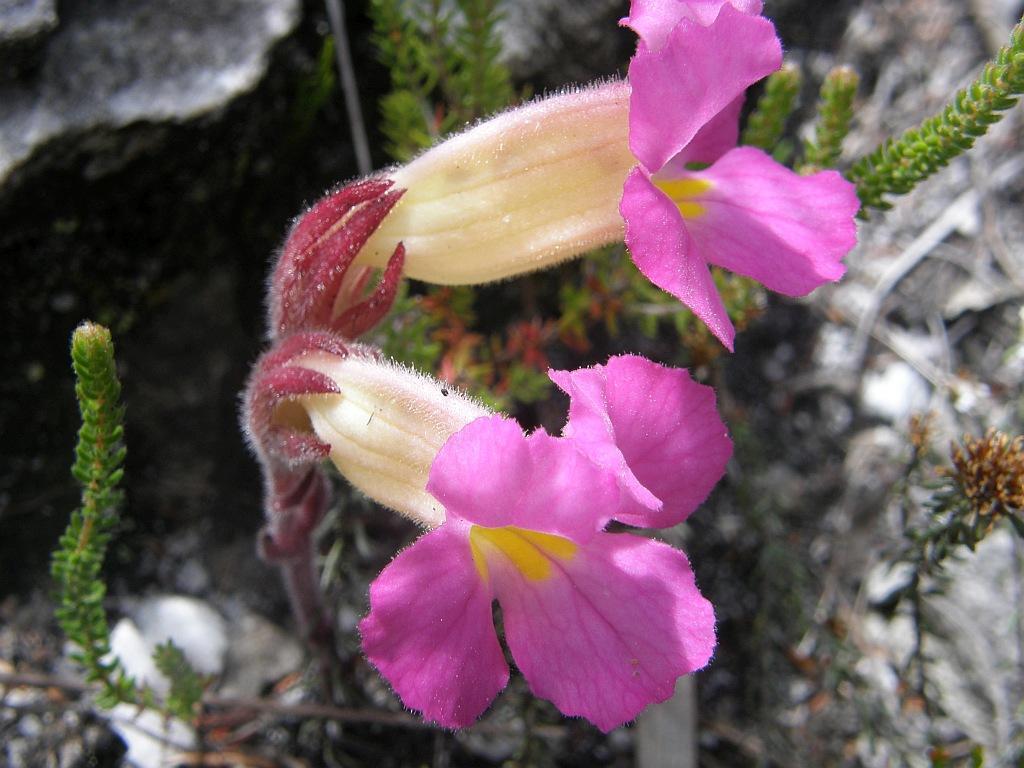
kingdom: Plantae
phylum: Tracheophyta
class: Magnoliopsida
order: Lamiales
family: Orobanchaceae
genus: Harveya
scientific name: Harveya purpurea
